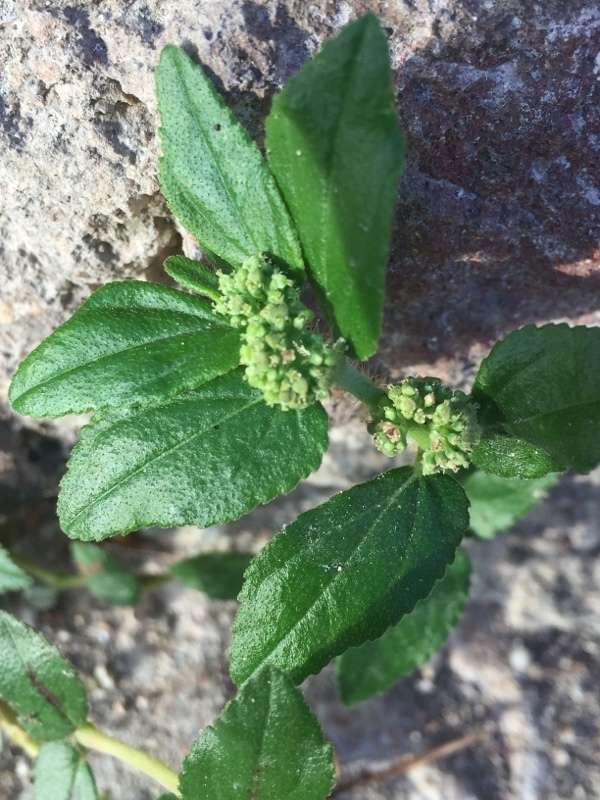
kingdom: Plantae
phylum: Tracheophyta
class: Magnoliopsida
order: Malpighiales
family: Euphorbiaceae
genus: Euphorbia
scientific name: Euphorbia hirta
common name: Pillpod sandmat
